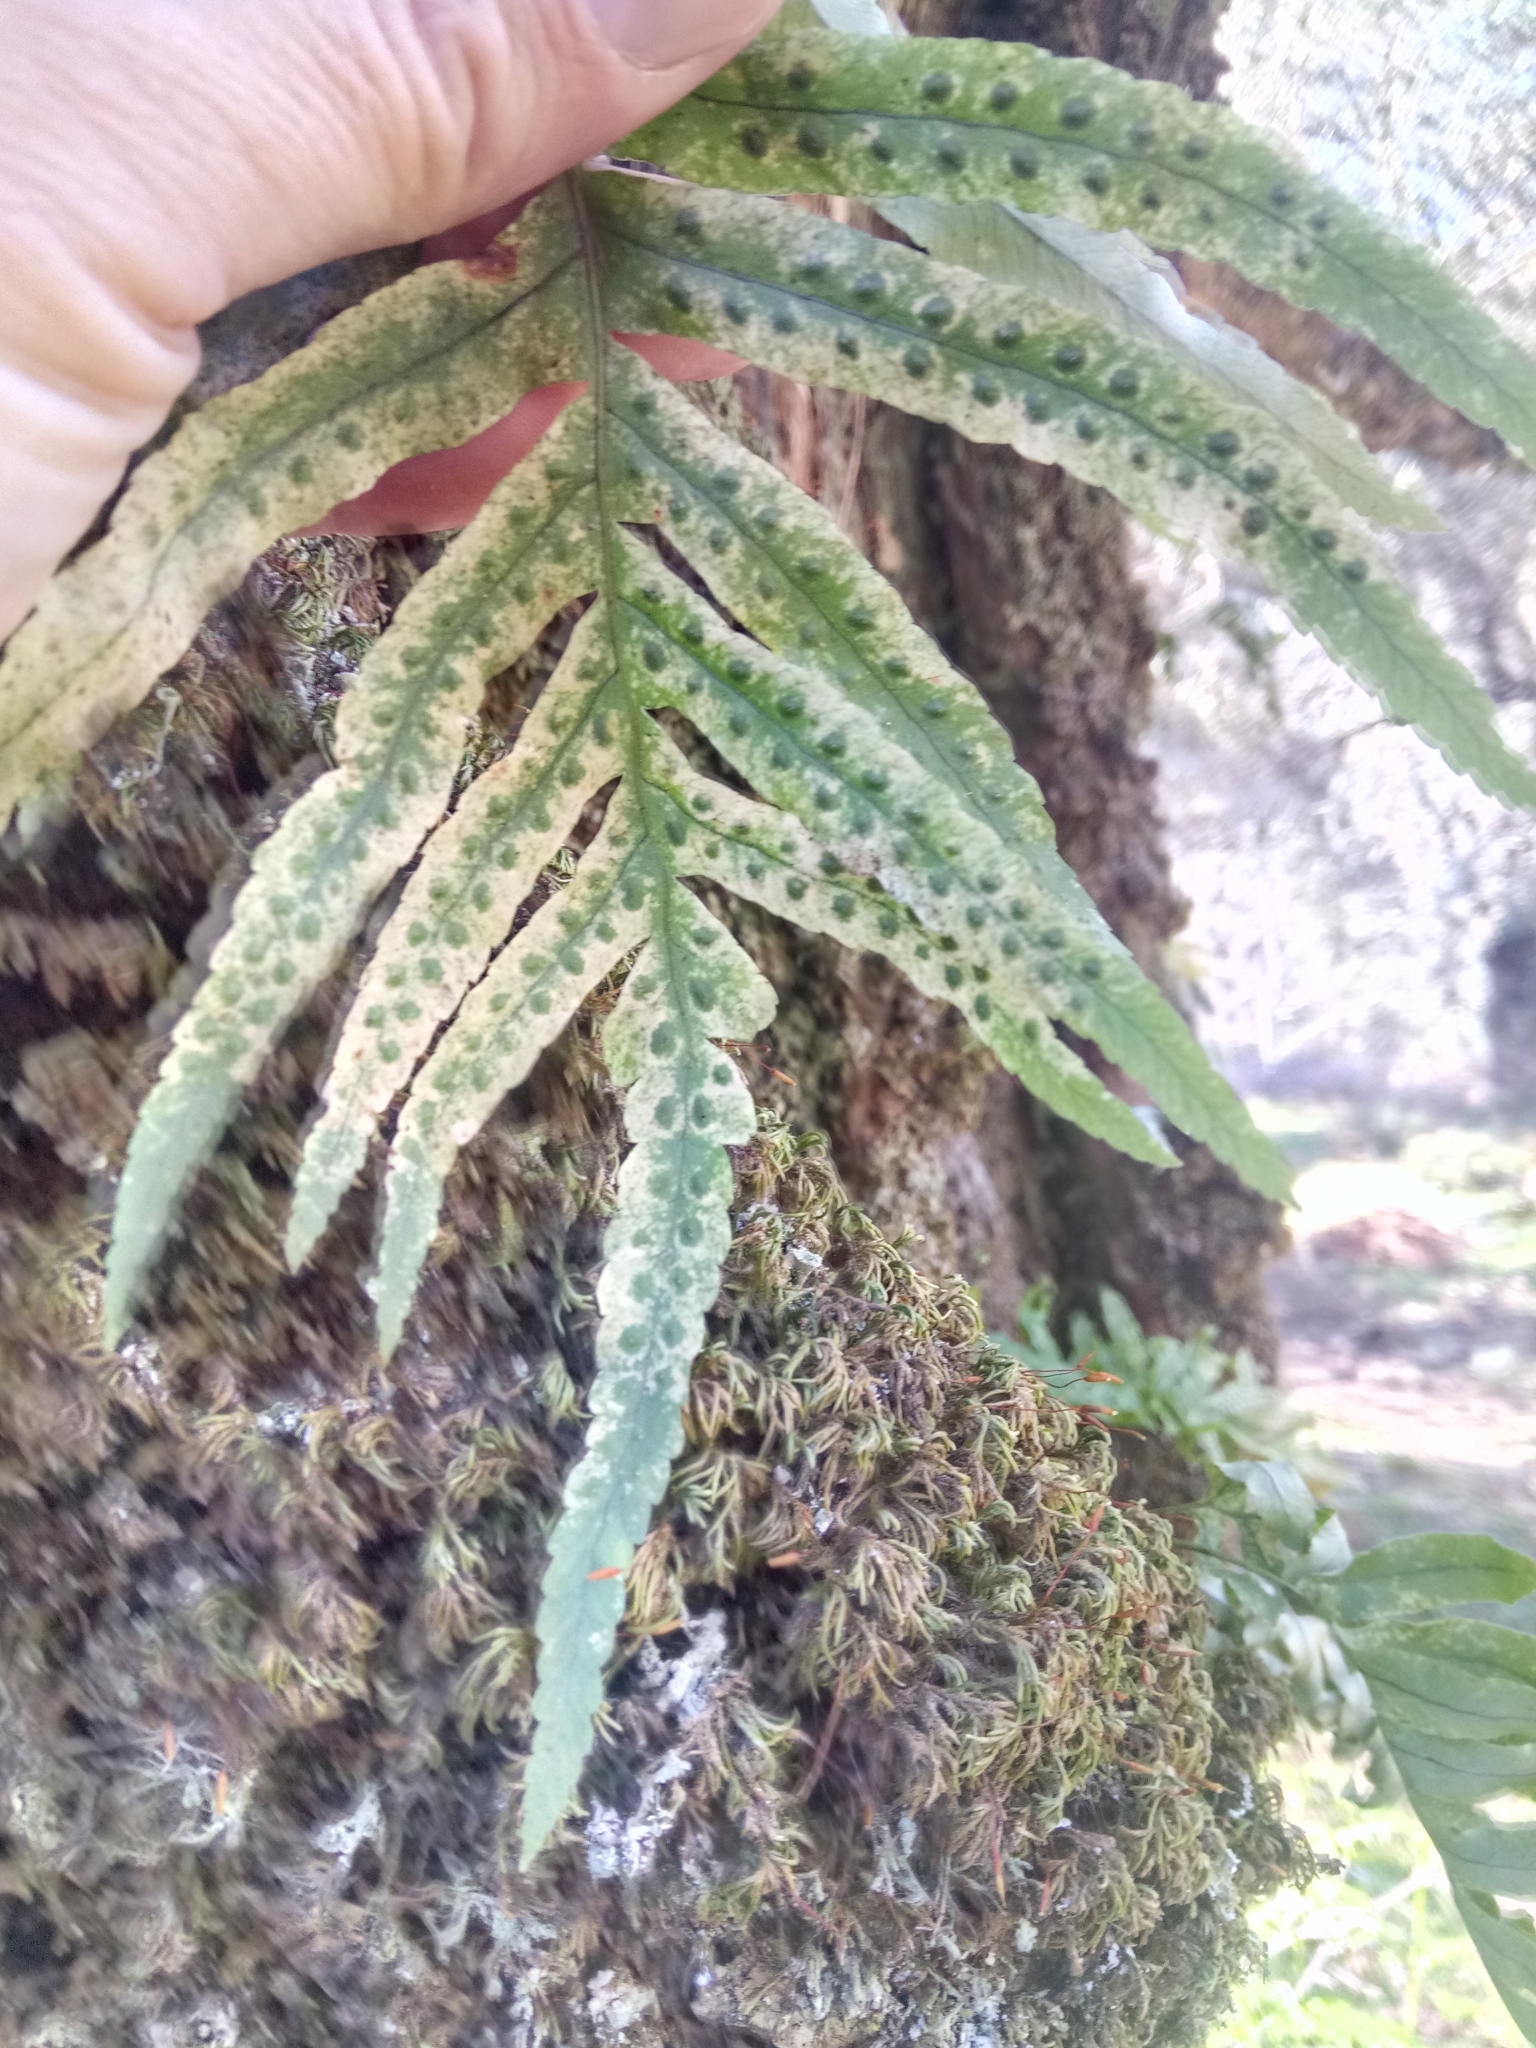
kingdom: Plantae
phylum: Tracheophyta
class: Polypodiopsida
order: Polypodiales
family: Polypodiaceae
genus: Polypodium
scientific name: Polypodium cambricum
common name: Southern polypody
